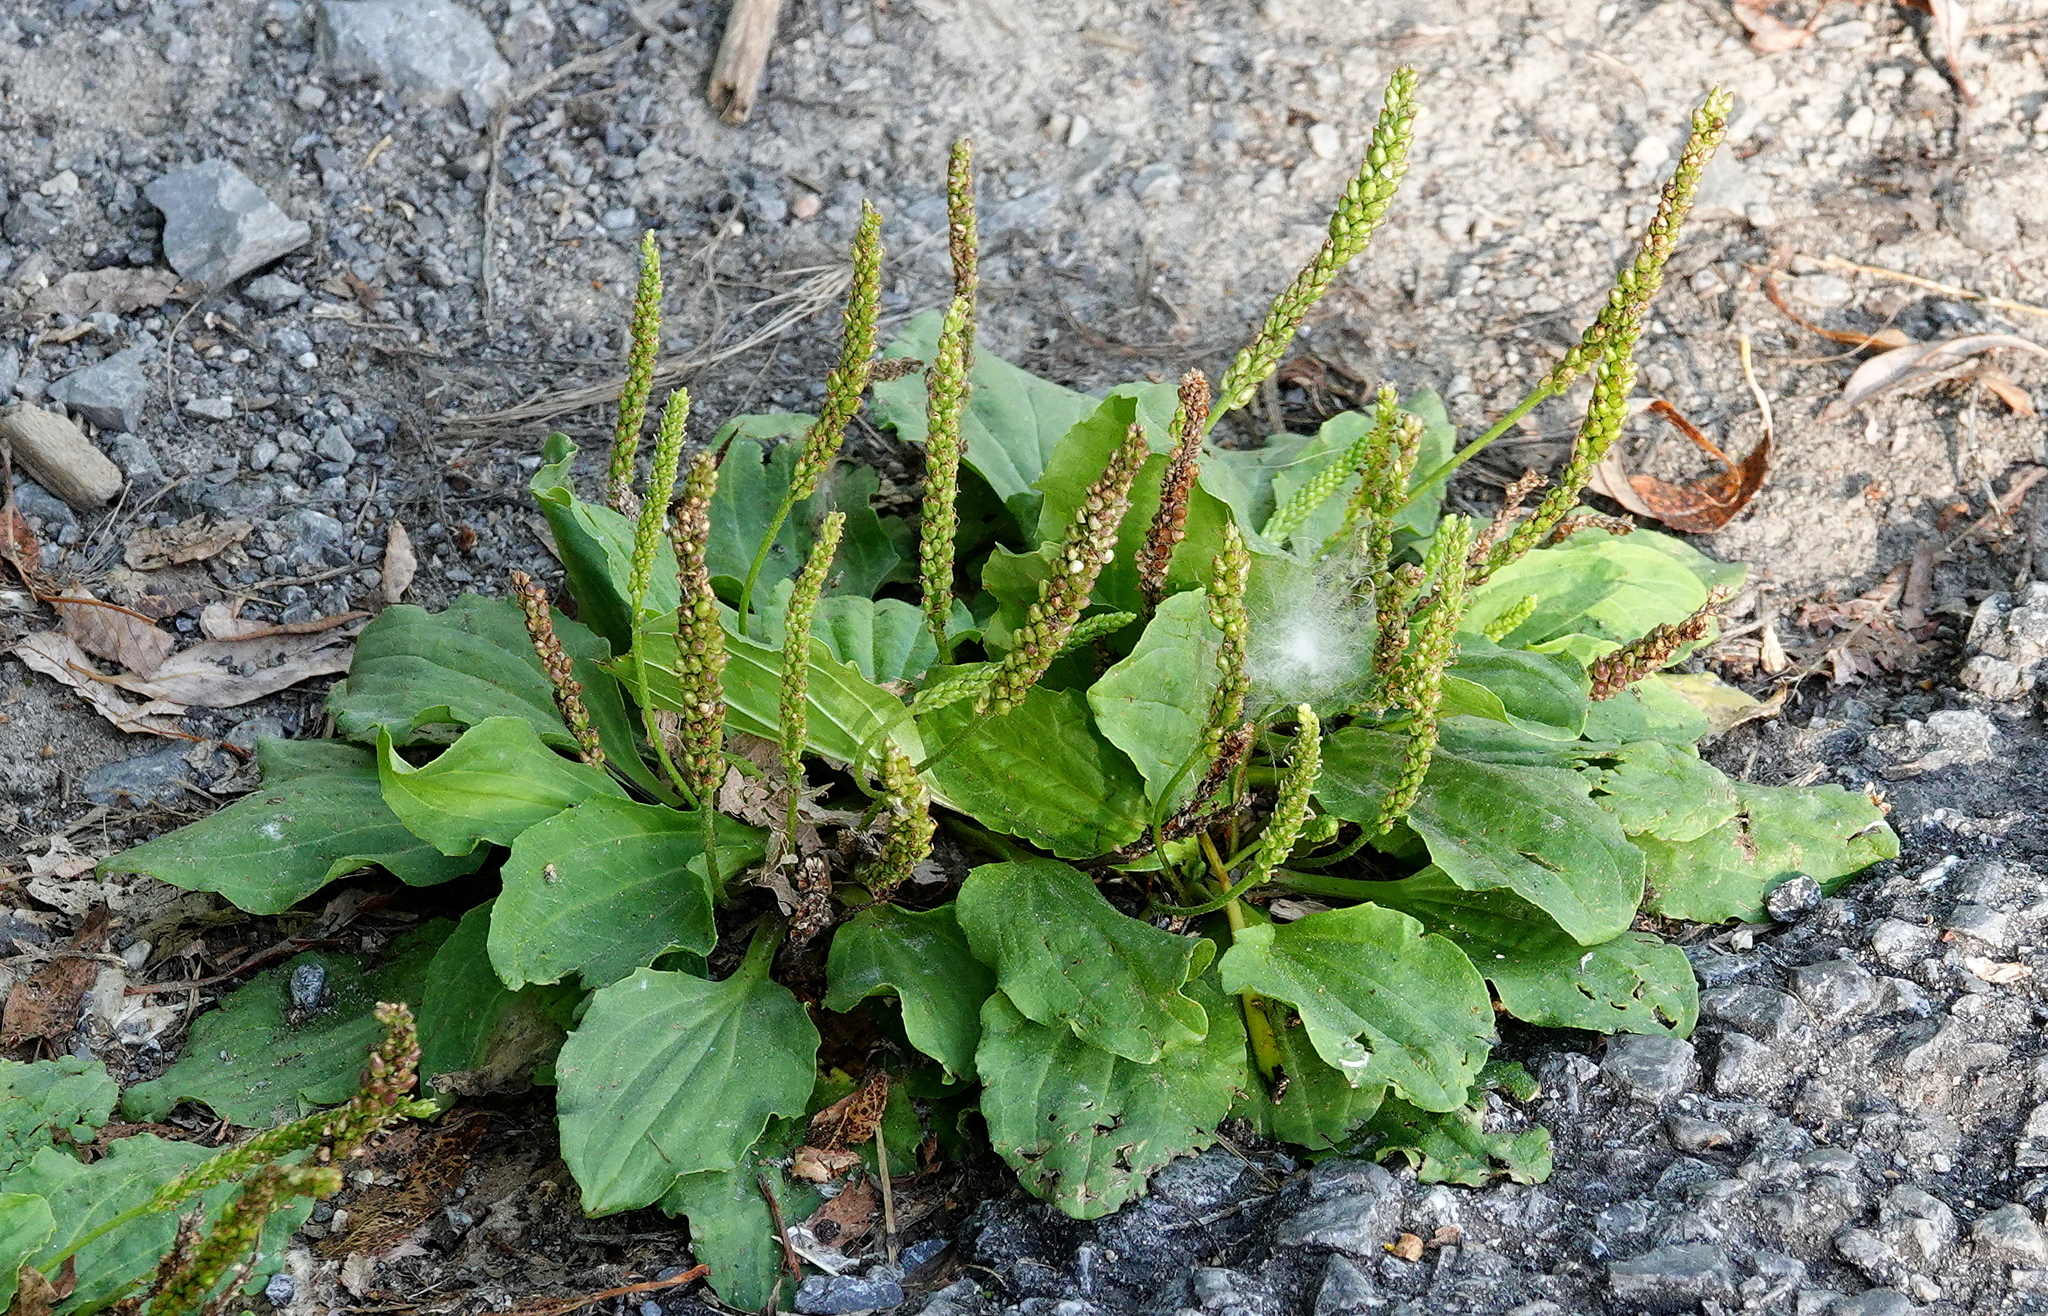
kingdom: Plantae
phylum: Tracheophyta
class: Magnoliopsida
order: Lamiales
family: Plantaginaceae
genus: Plantago
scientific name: Plantago major
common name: Common plantain
